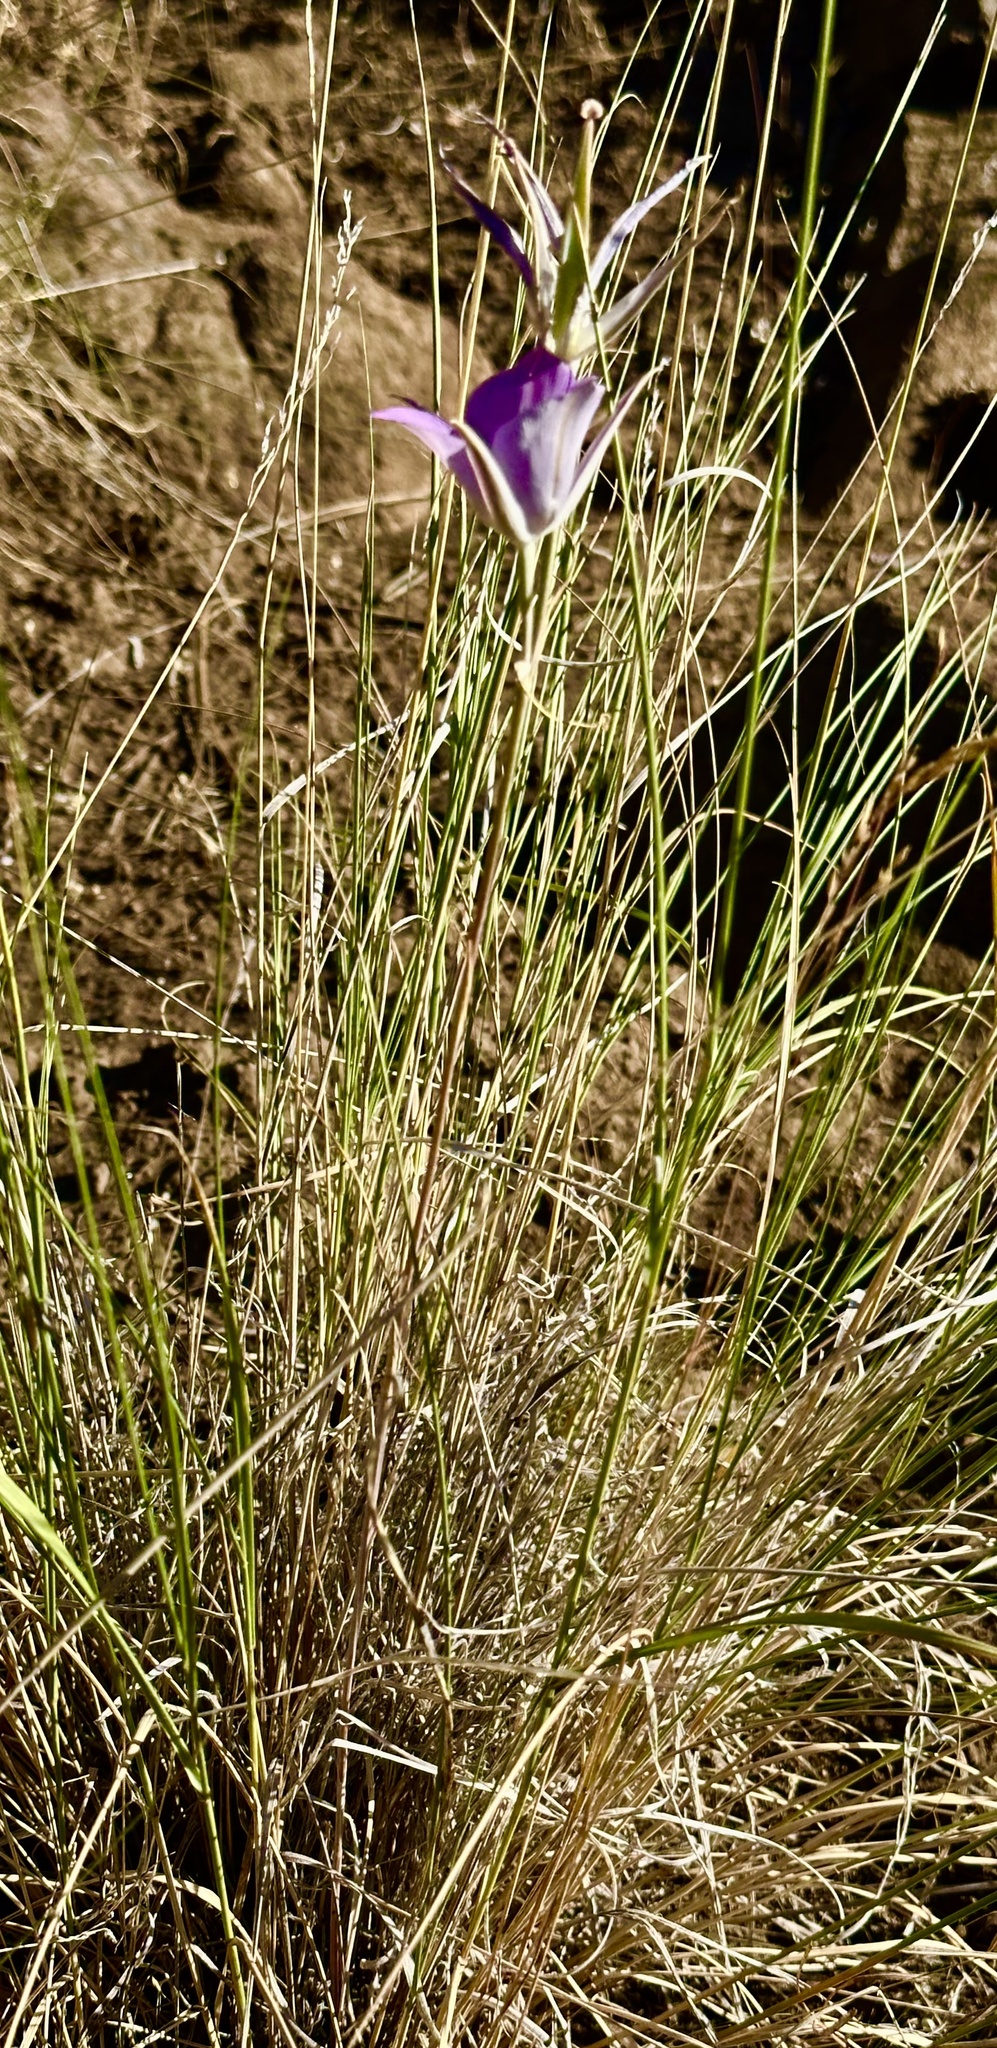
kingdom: Plantae
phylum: Tracheophyta
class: Liliopsida
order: Liliales
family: Liliaceae
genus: Calochortus
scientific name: Calochortus macrocarpus
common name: Green-band mariposa lily
